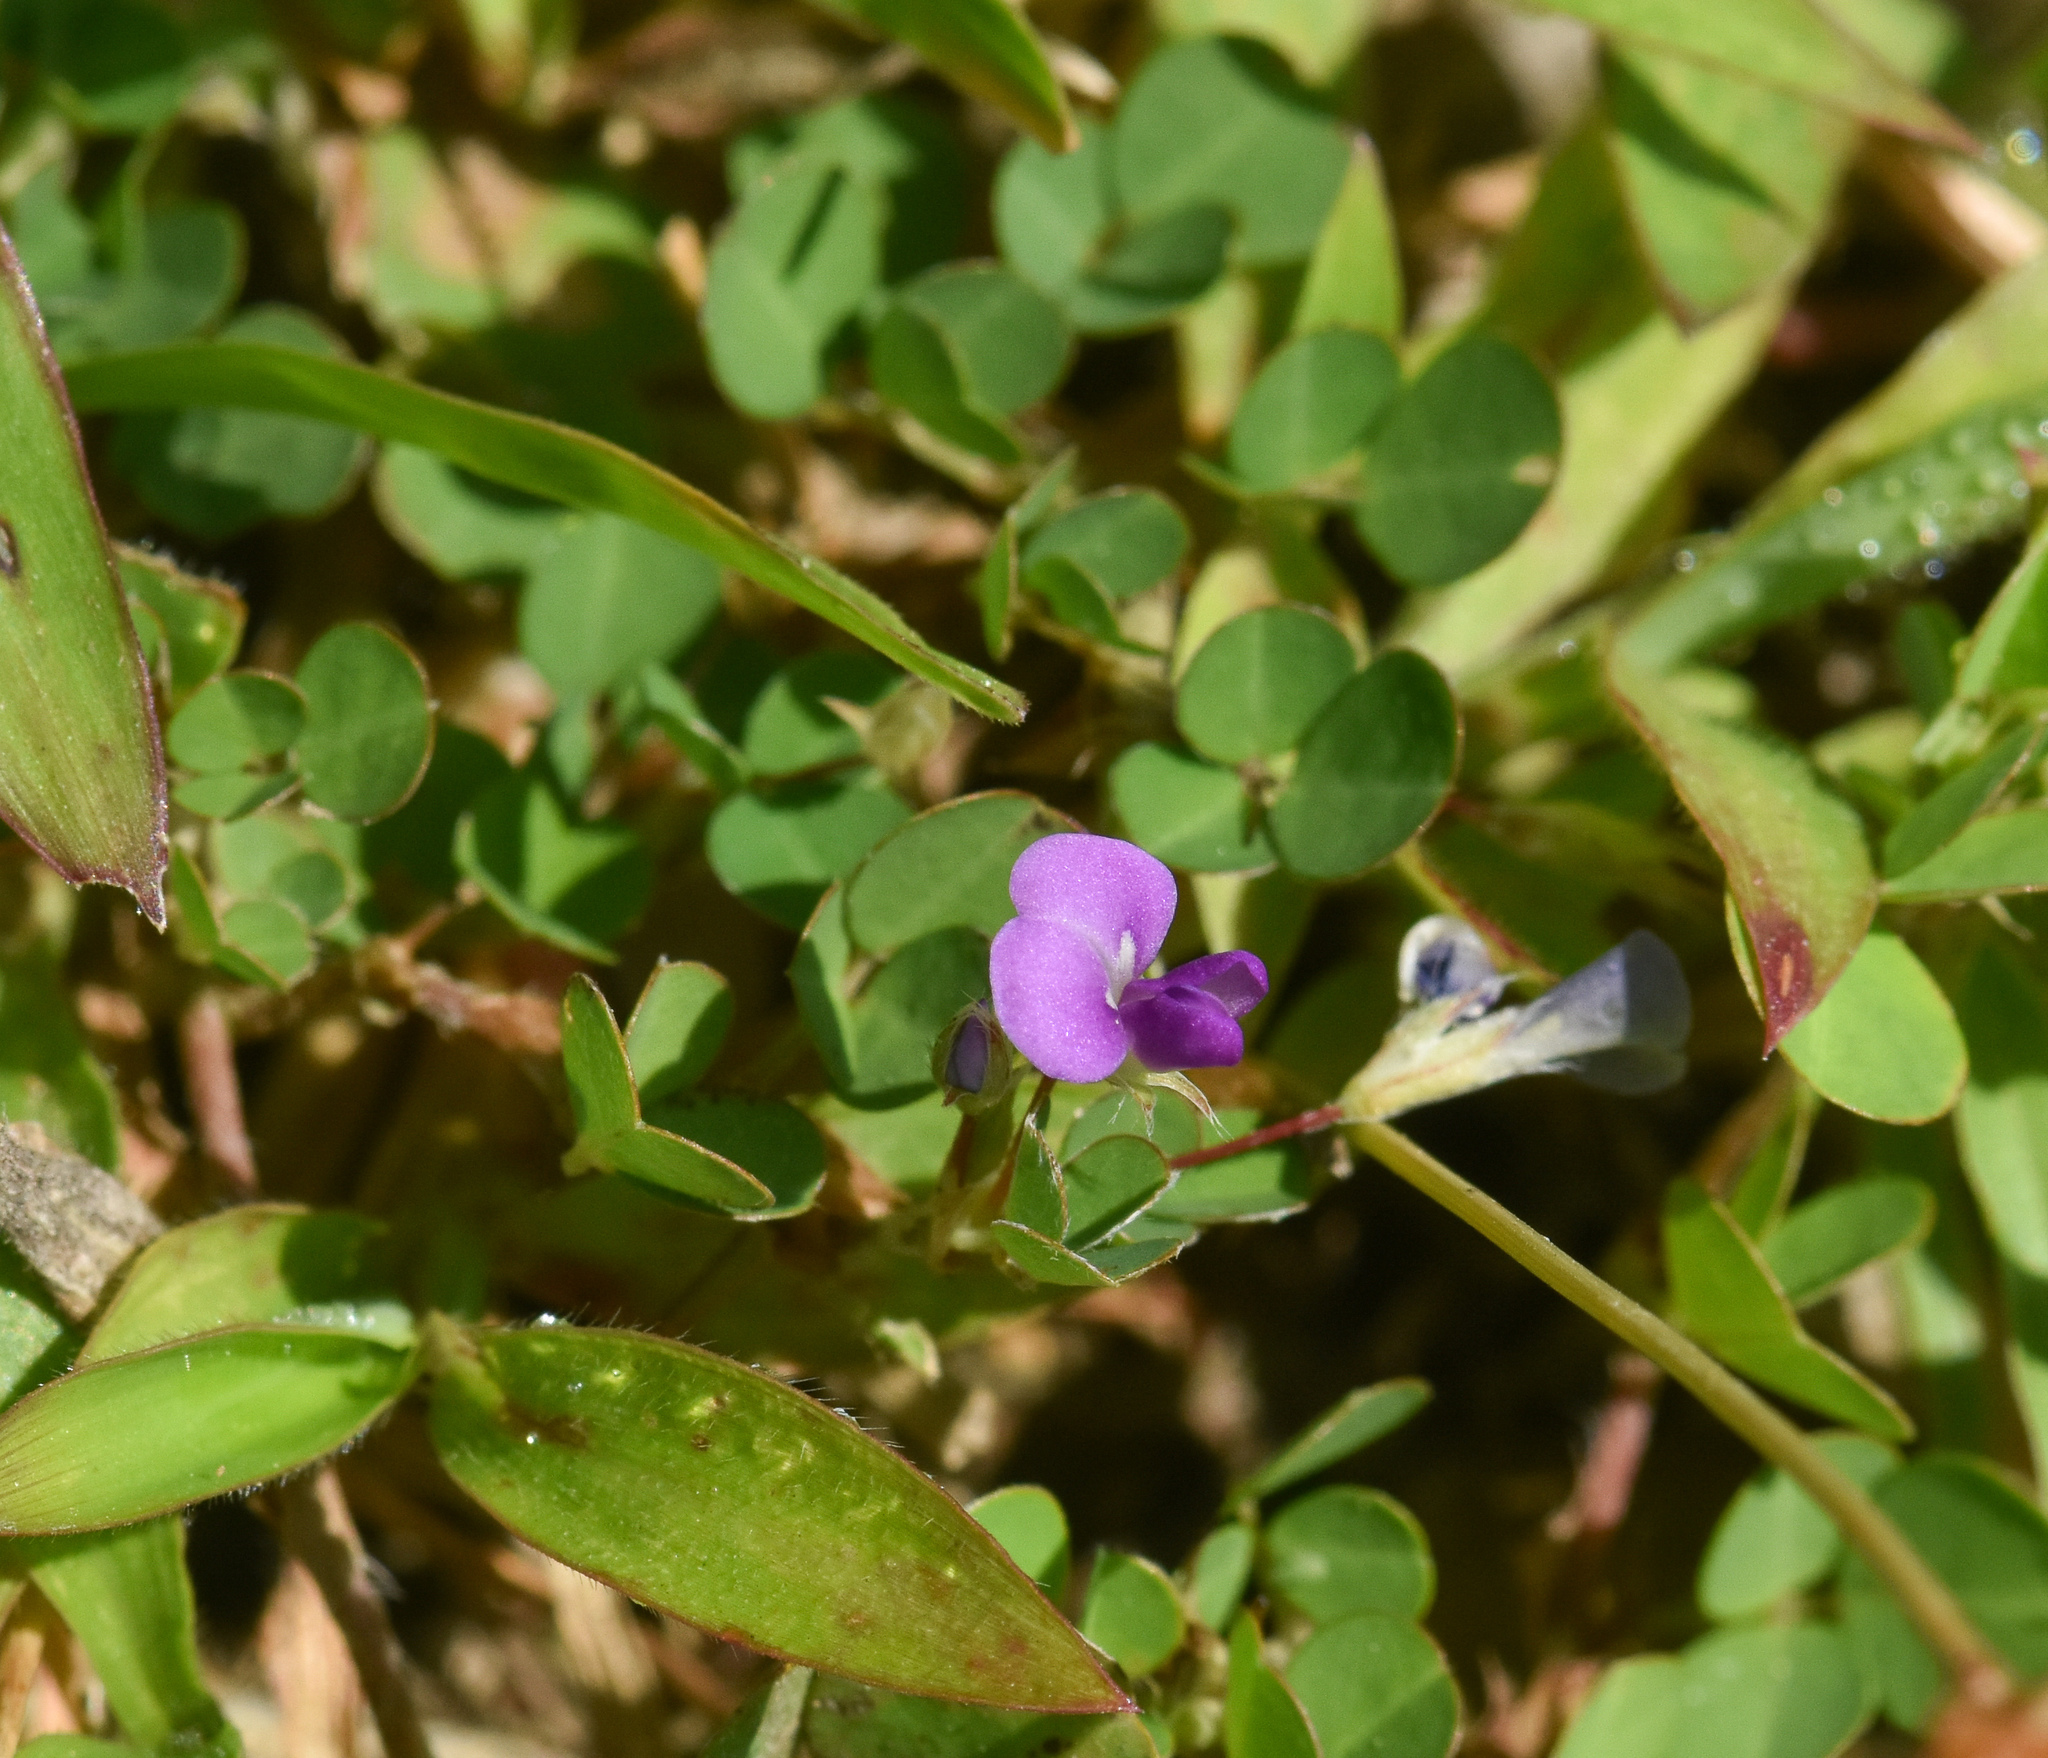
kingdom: Plantae
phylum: Tracheophyta
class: Magnoliopsida
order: Fabales
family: Fabaceae
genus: Grona
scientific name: Grona triflora
